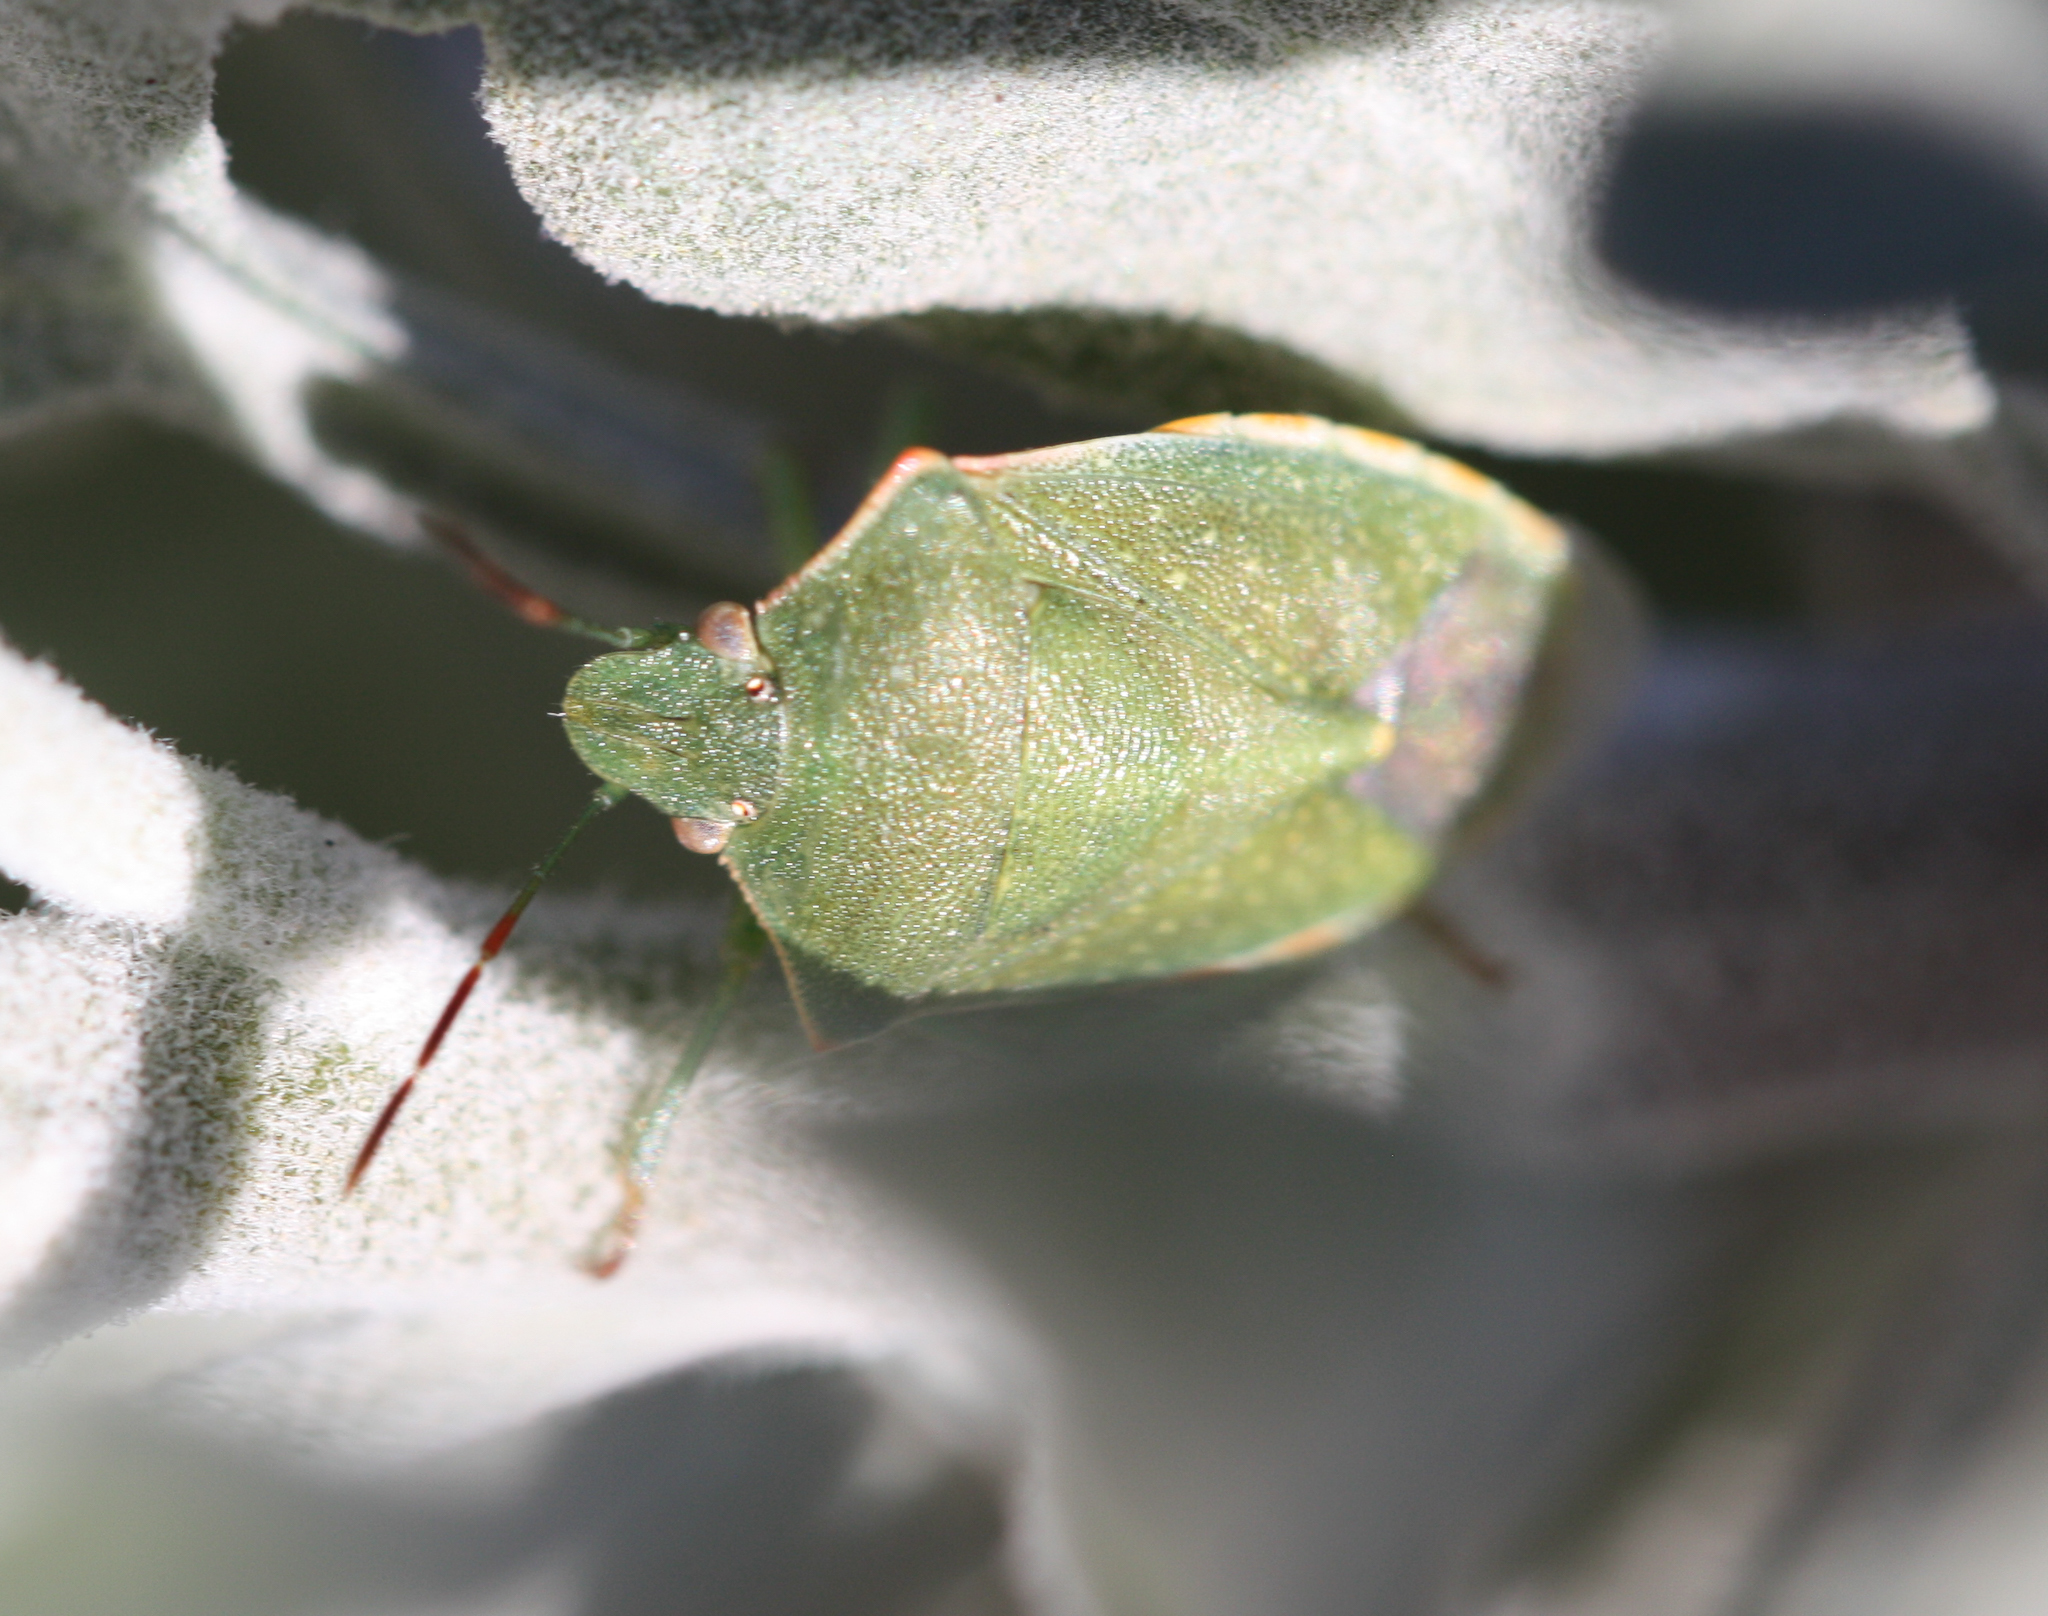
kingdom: Animalia
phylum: Arthropoda
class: Insecta
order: Hemiptera
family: Pentatomidae
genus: Thyanta
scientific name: Thyanta accerra
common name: Stink bug
